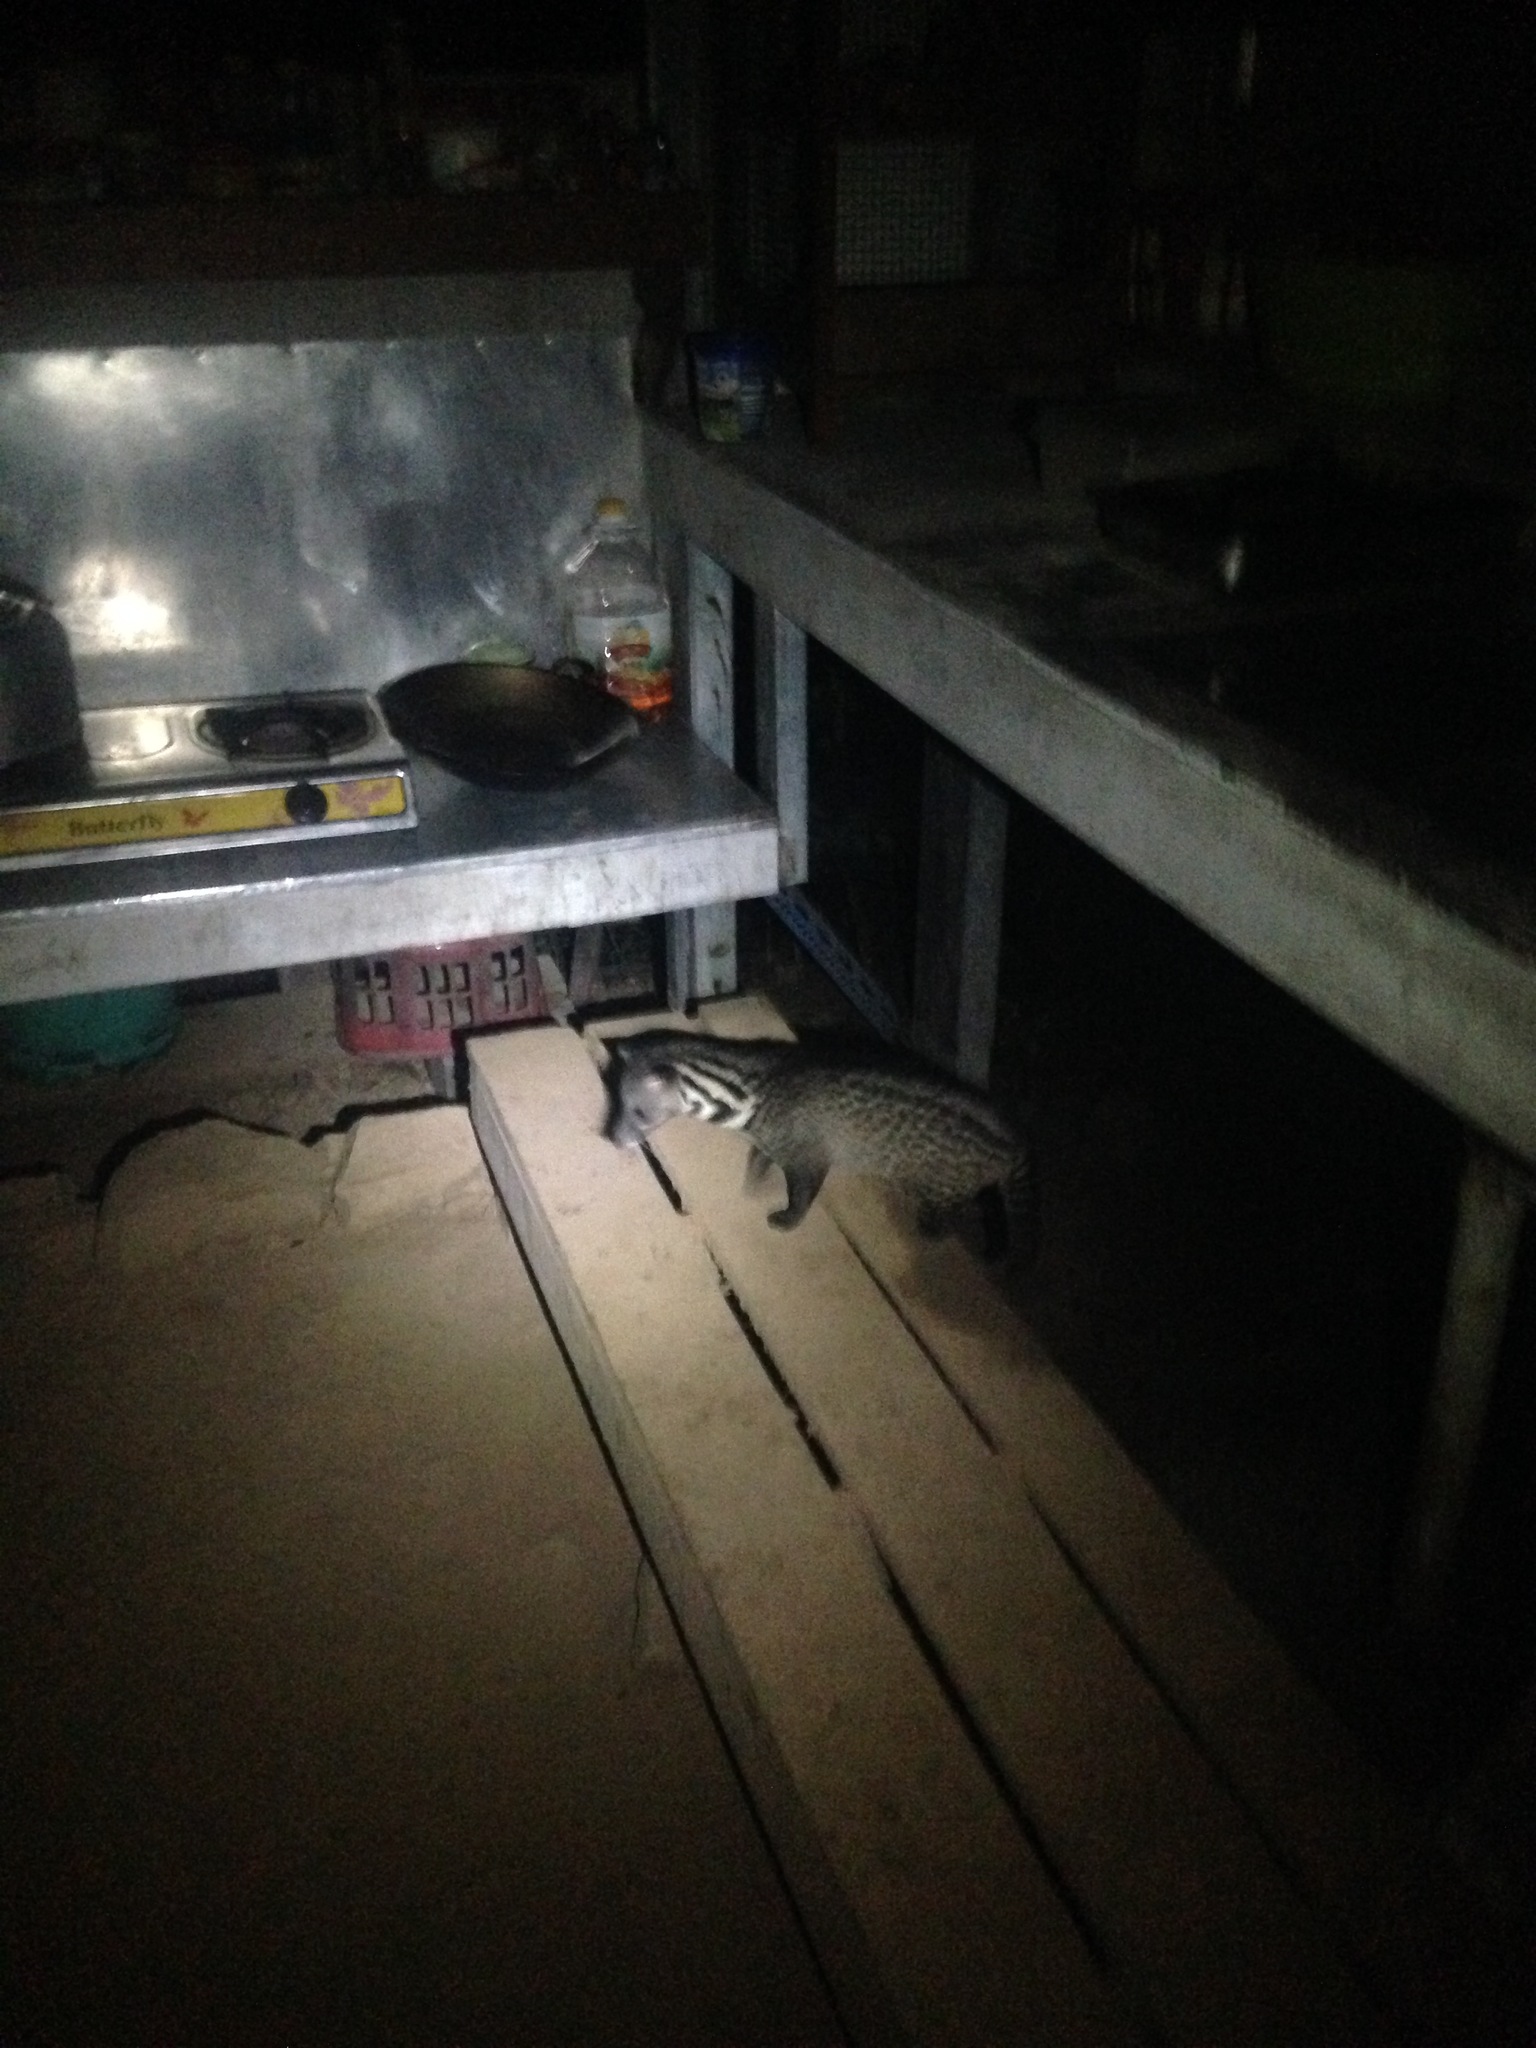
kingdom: Animalia
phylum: Chordata
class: Mammalia
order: Carnivora
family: Viverridae
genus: Viverra
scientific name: Viverra tangalunga
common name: Malayan civet
